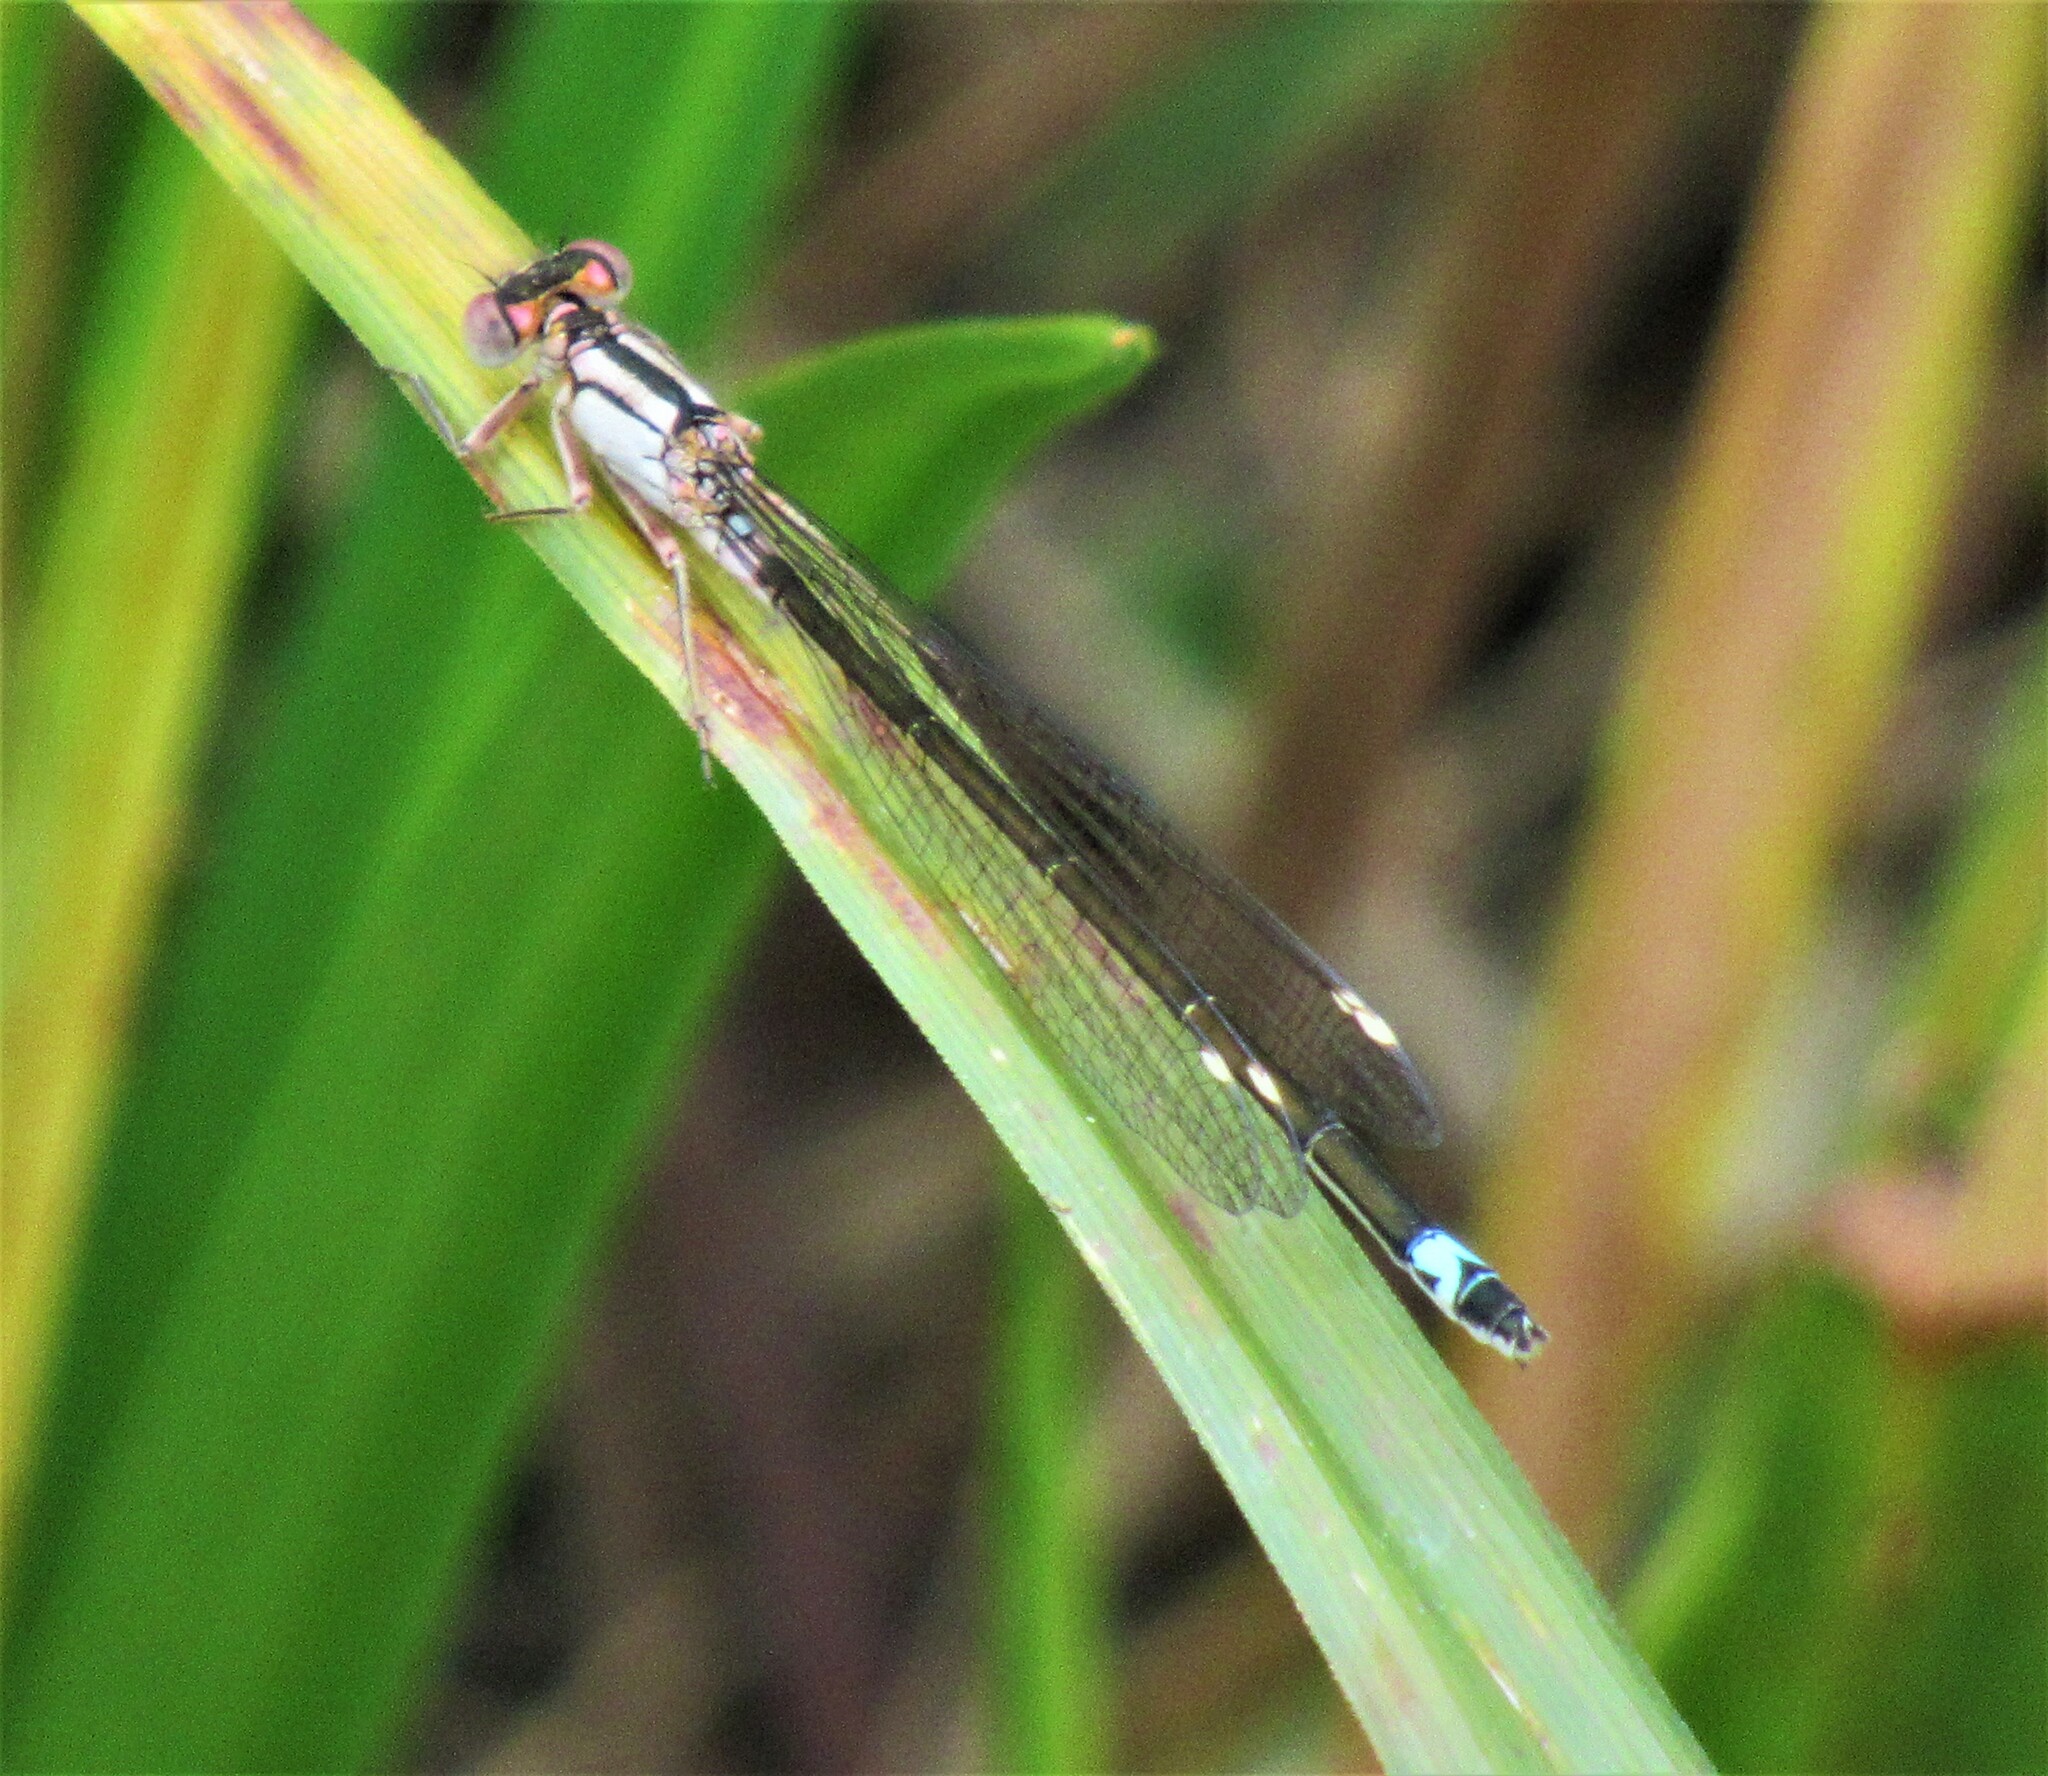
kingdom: Animalia
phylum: Arthropoda
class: Insecta
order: Odonata
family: Coenagrionidae
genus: Ischnura
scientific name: Ischnura cervula
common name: Pacific forktail
